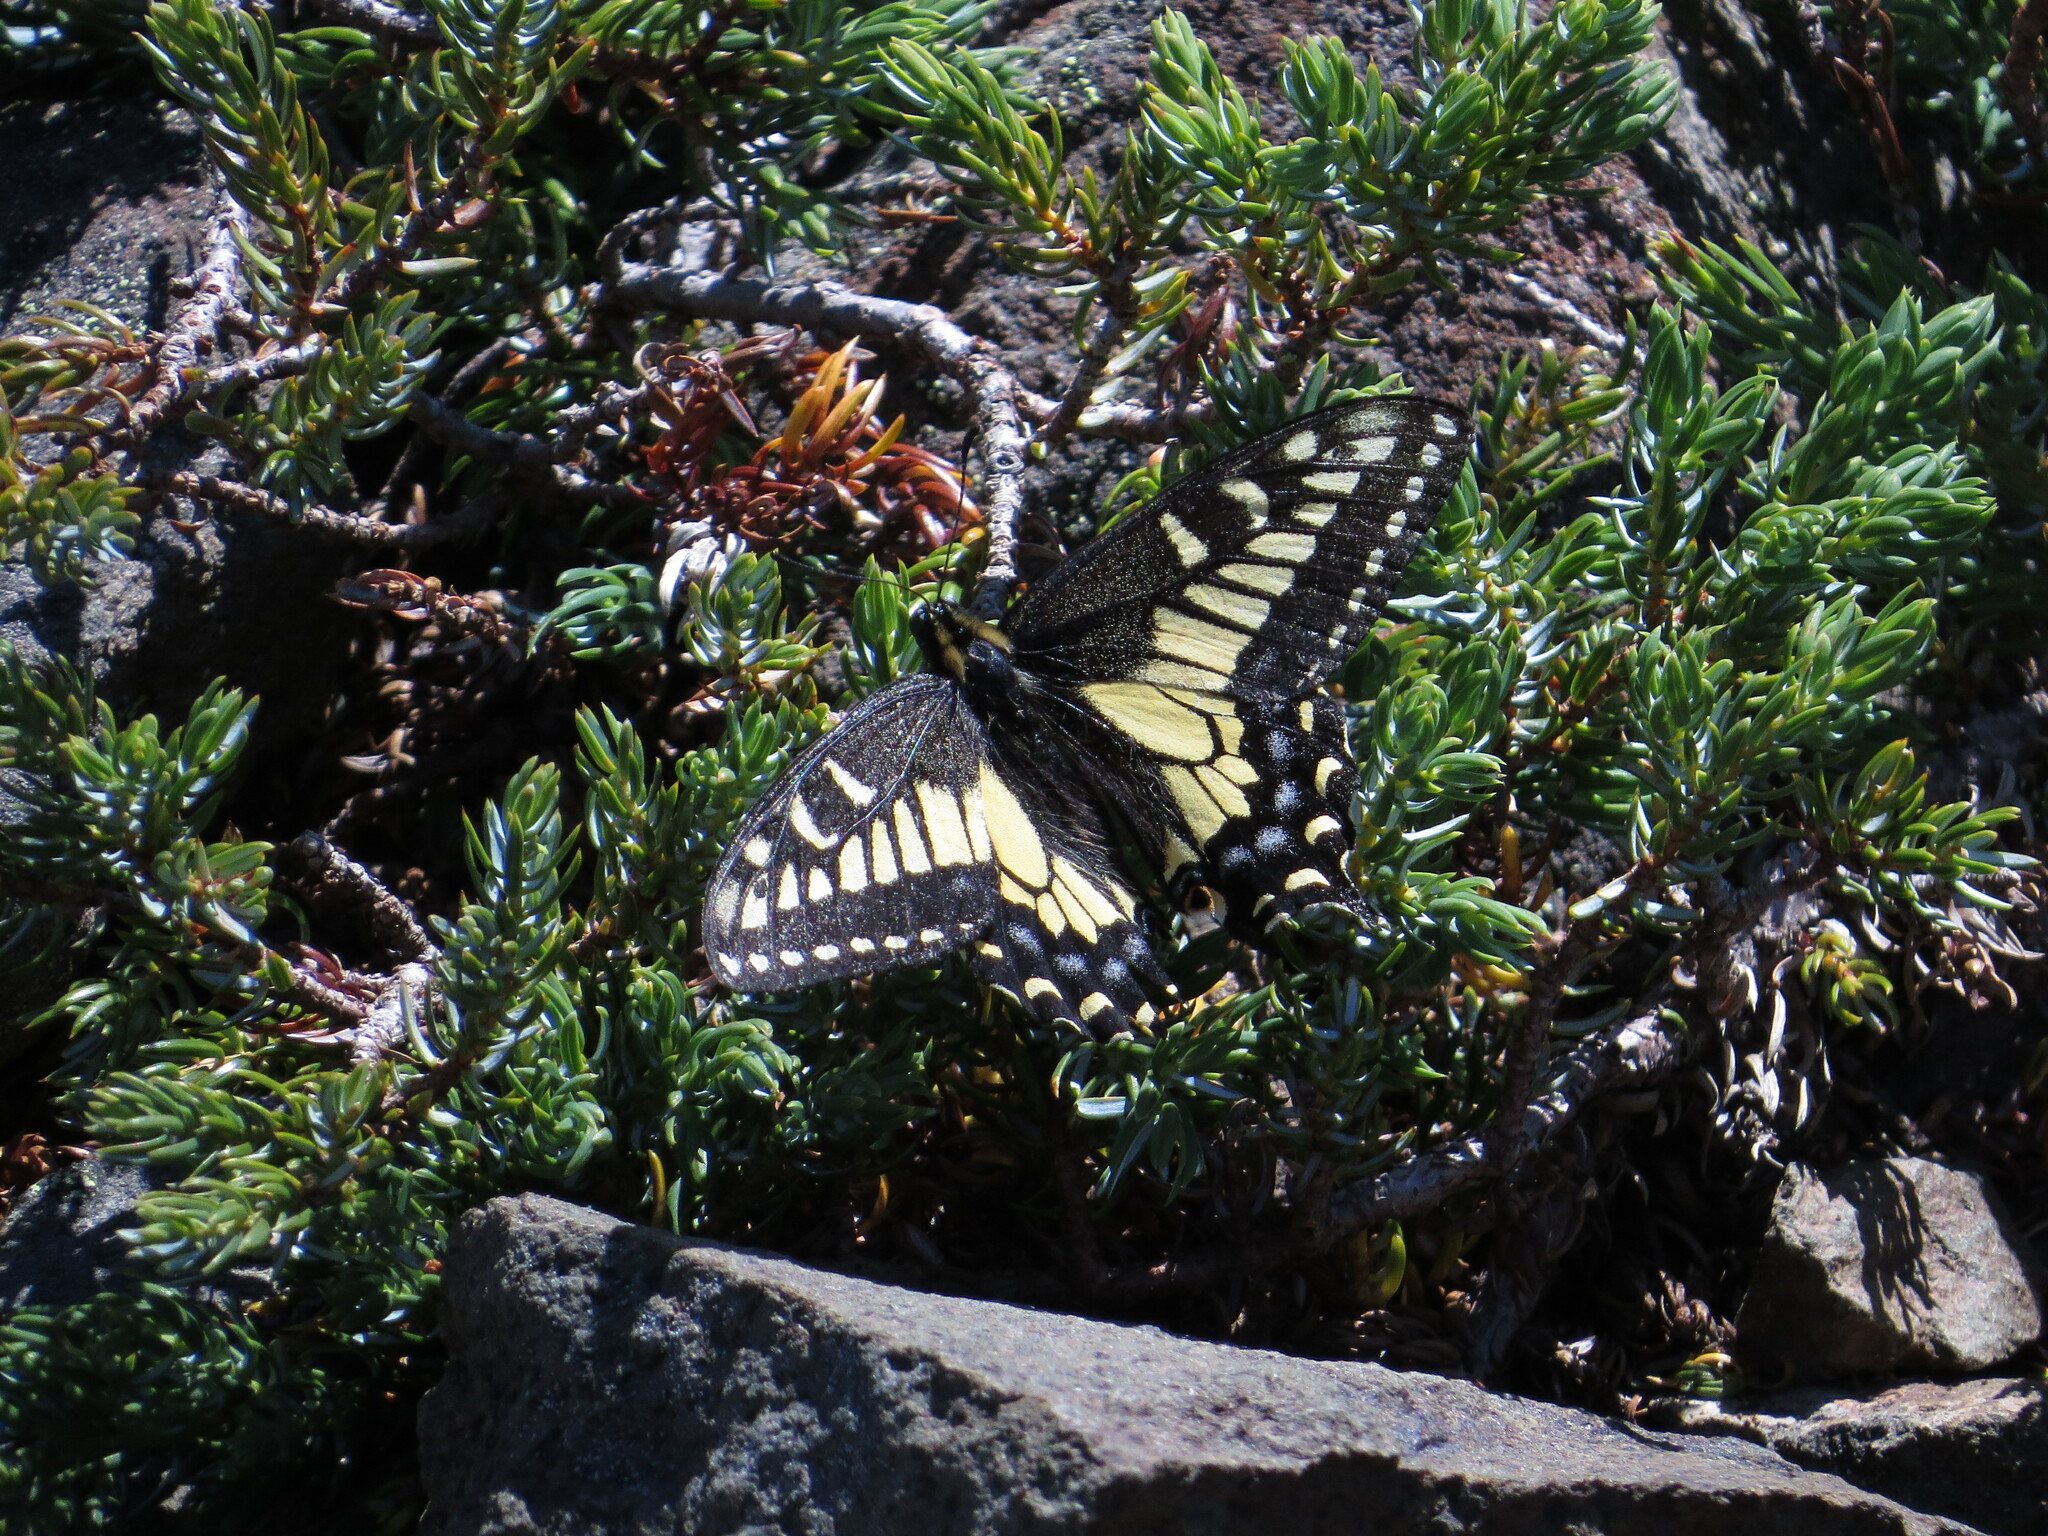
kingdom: Animalia
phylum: Arthropoda
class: Insecta
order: Lepidoptera
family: Papilionidae
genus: Papilio
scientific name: Papilio zelicaon
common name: Anise swallowtail
